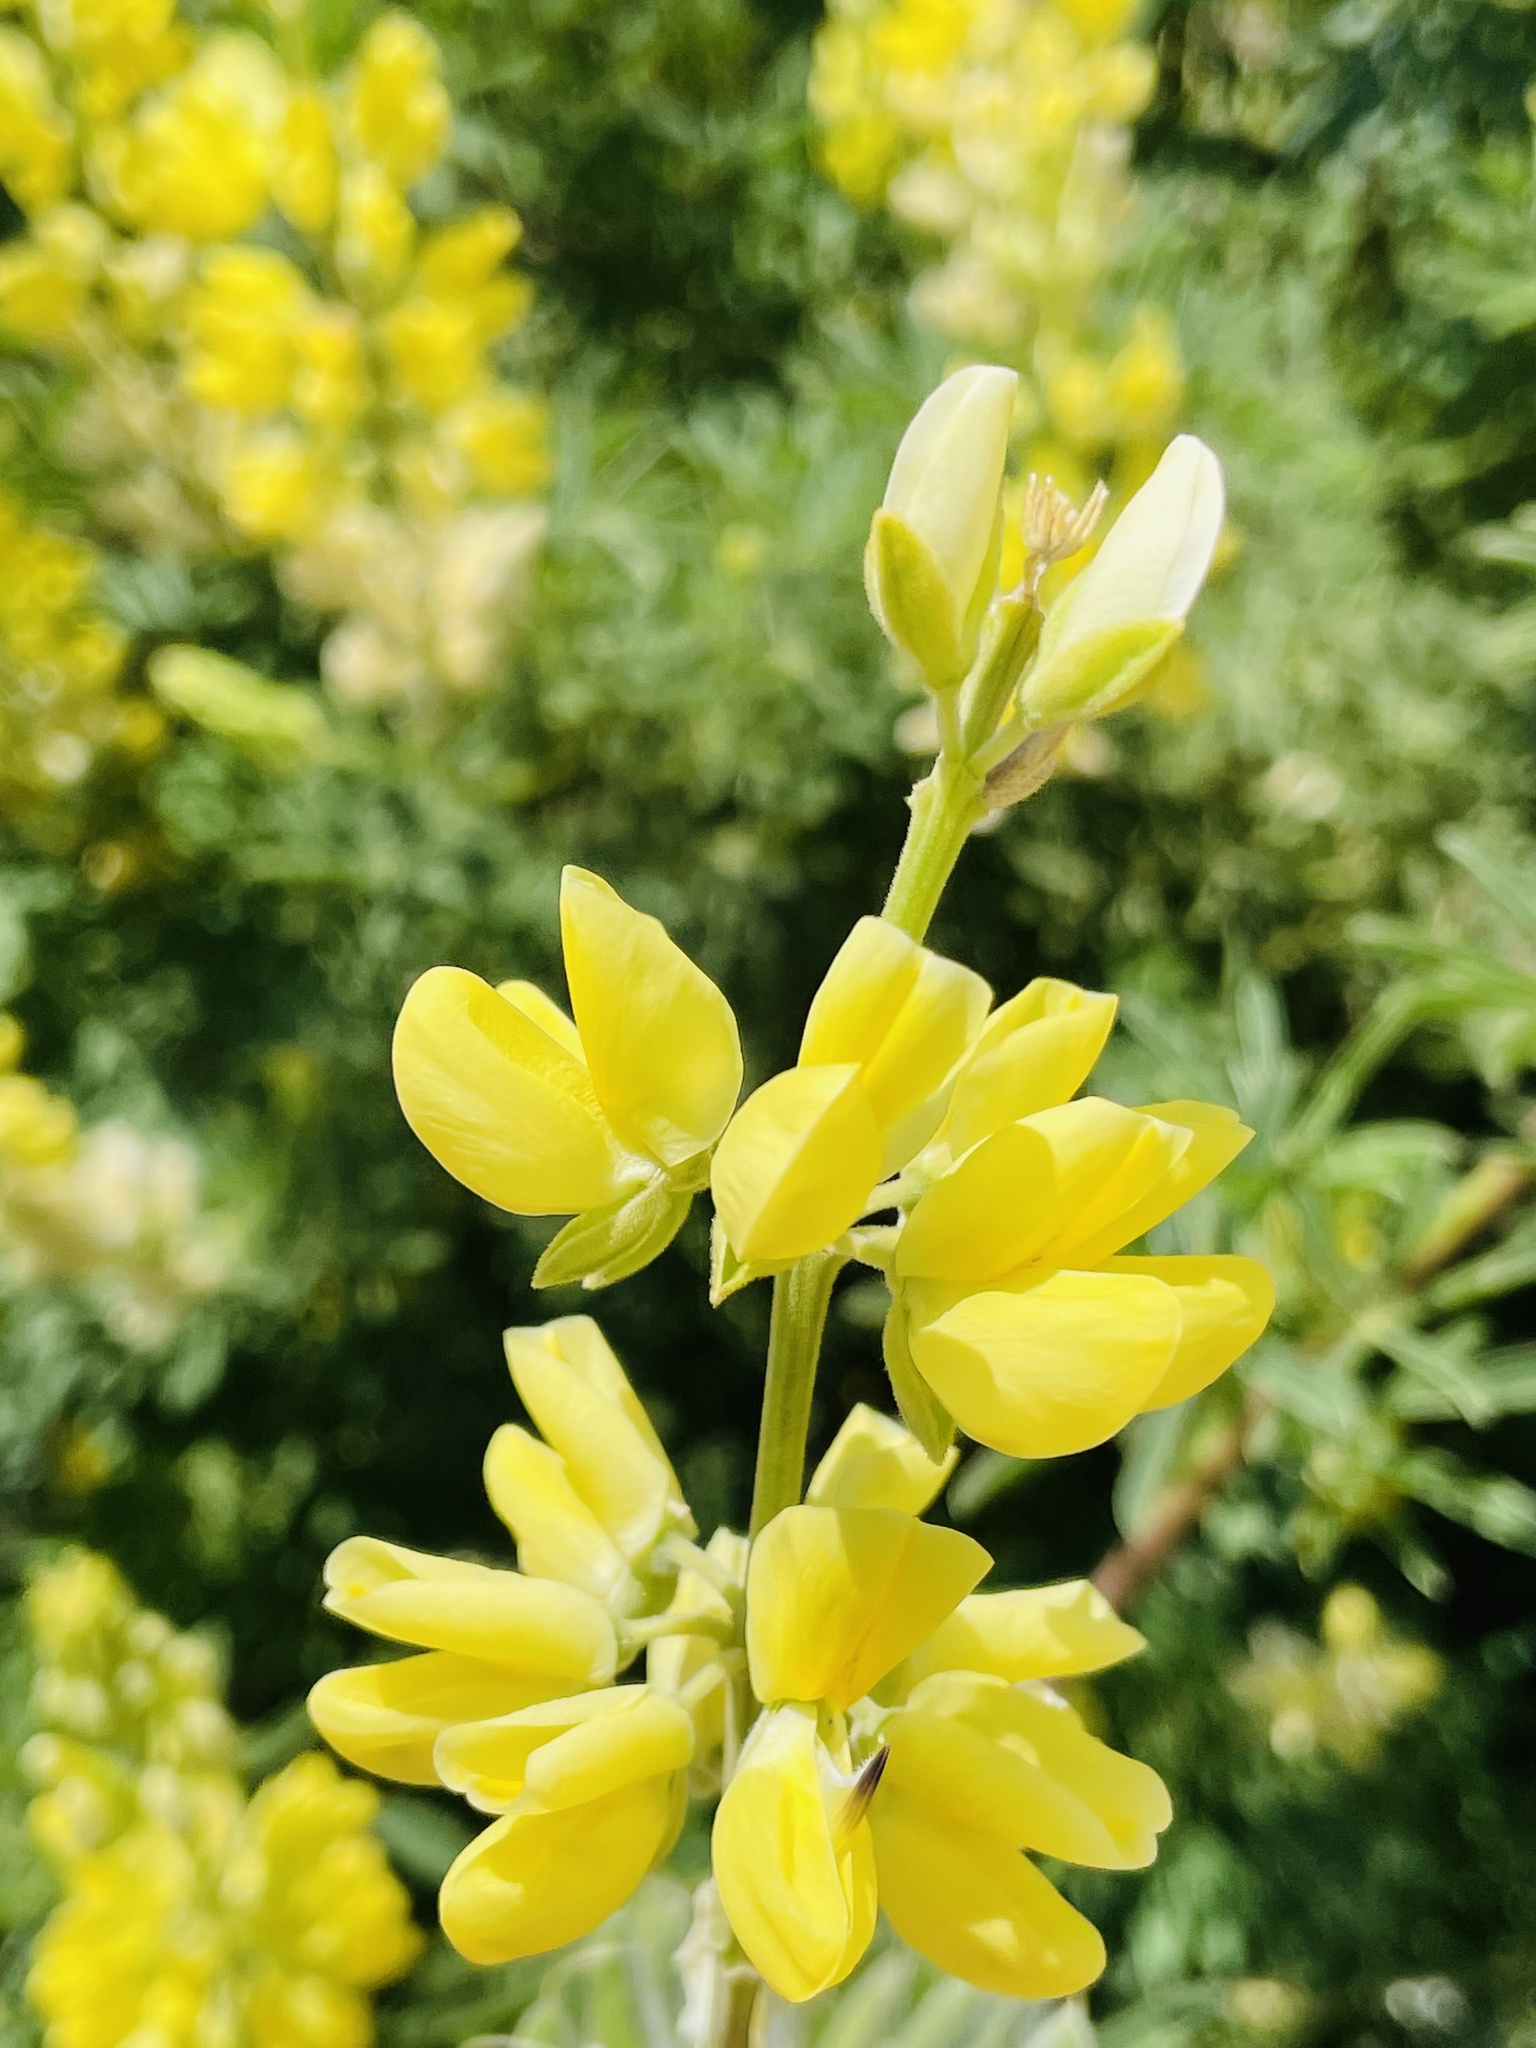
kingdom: Plantae
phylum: Tracheophyta
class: Magnoliopsida
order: Fabales
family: Fabaceae
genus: Lupinus
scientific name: Lupinus arboreus
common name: Yellow bush lupine
